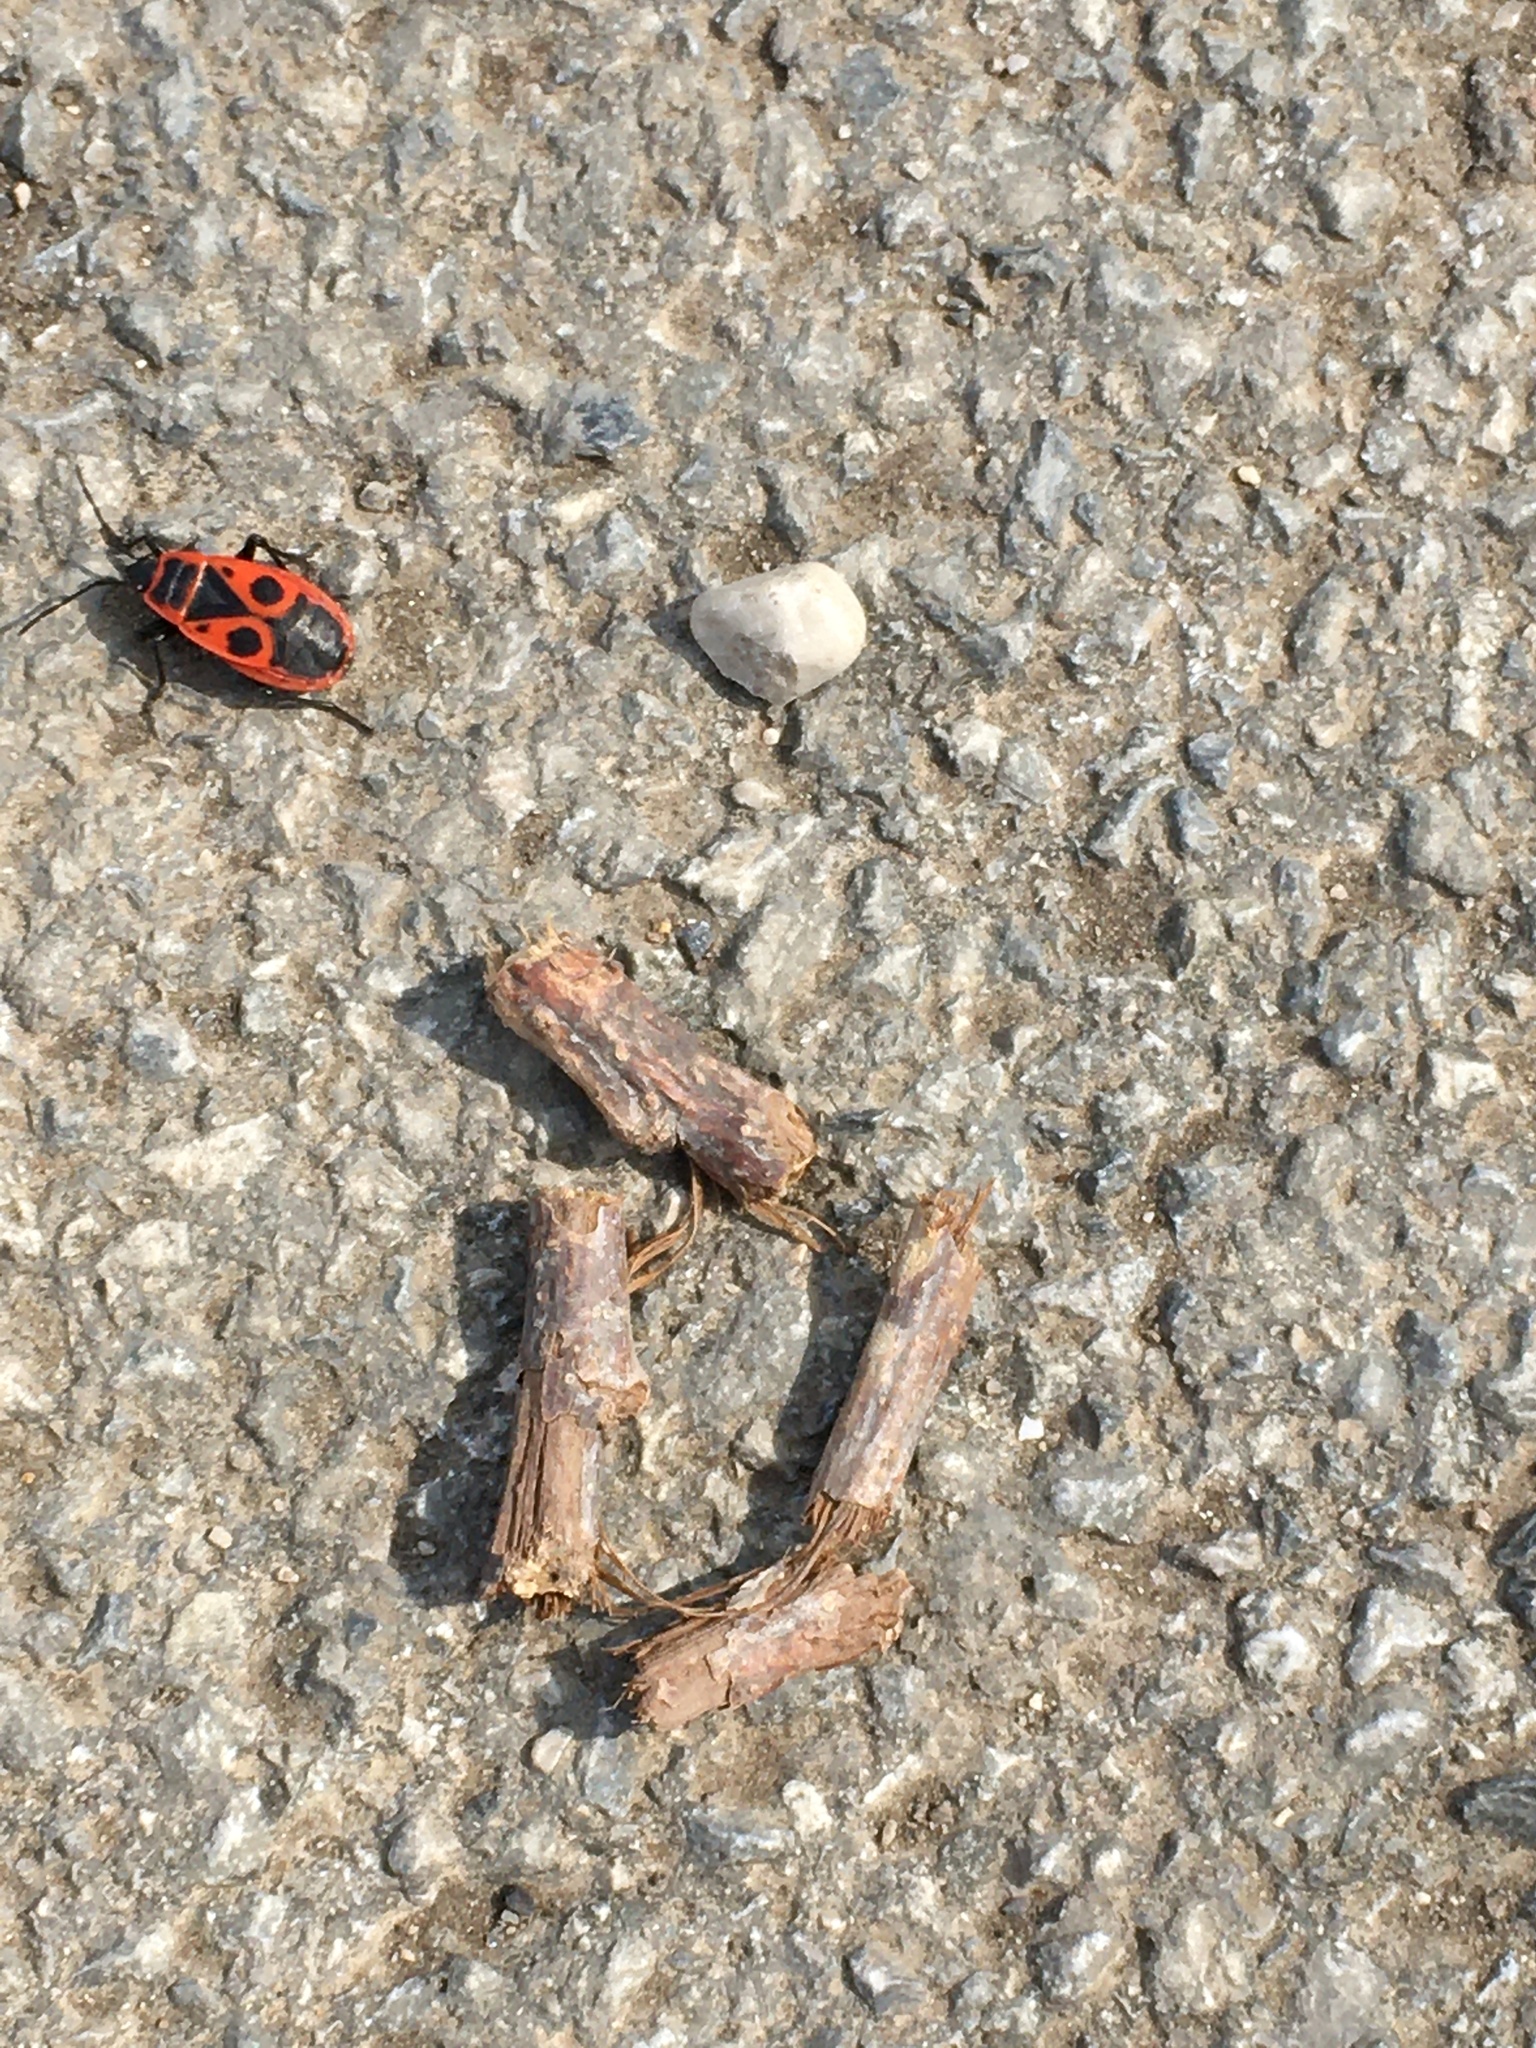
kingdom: Animalia
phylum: Arthropoda
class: Insecta
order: Hemiptera
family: Pyrrhocoridae
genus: Pyrrhocoris
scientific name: Pyrrhocoris apterus
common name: Firebug
